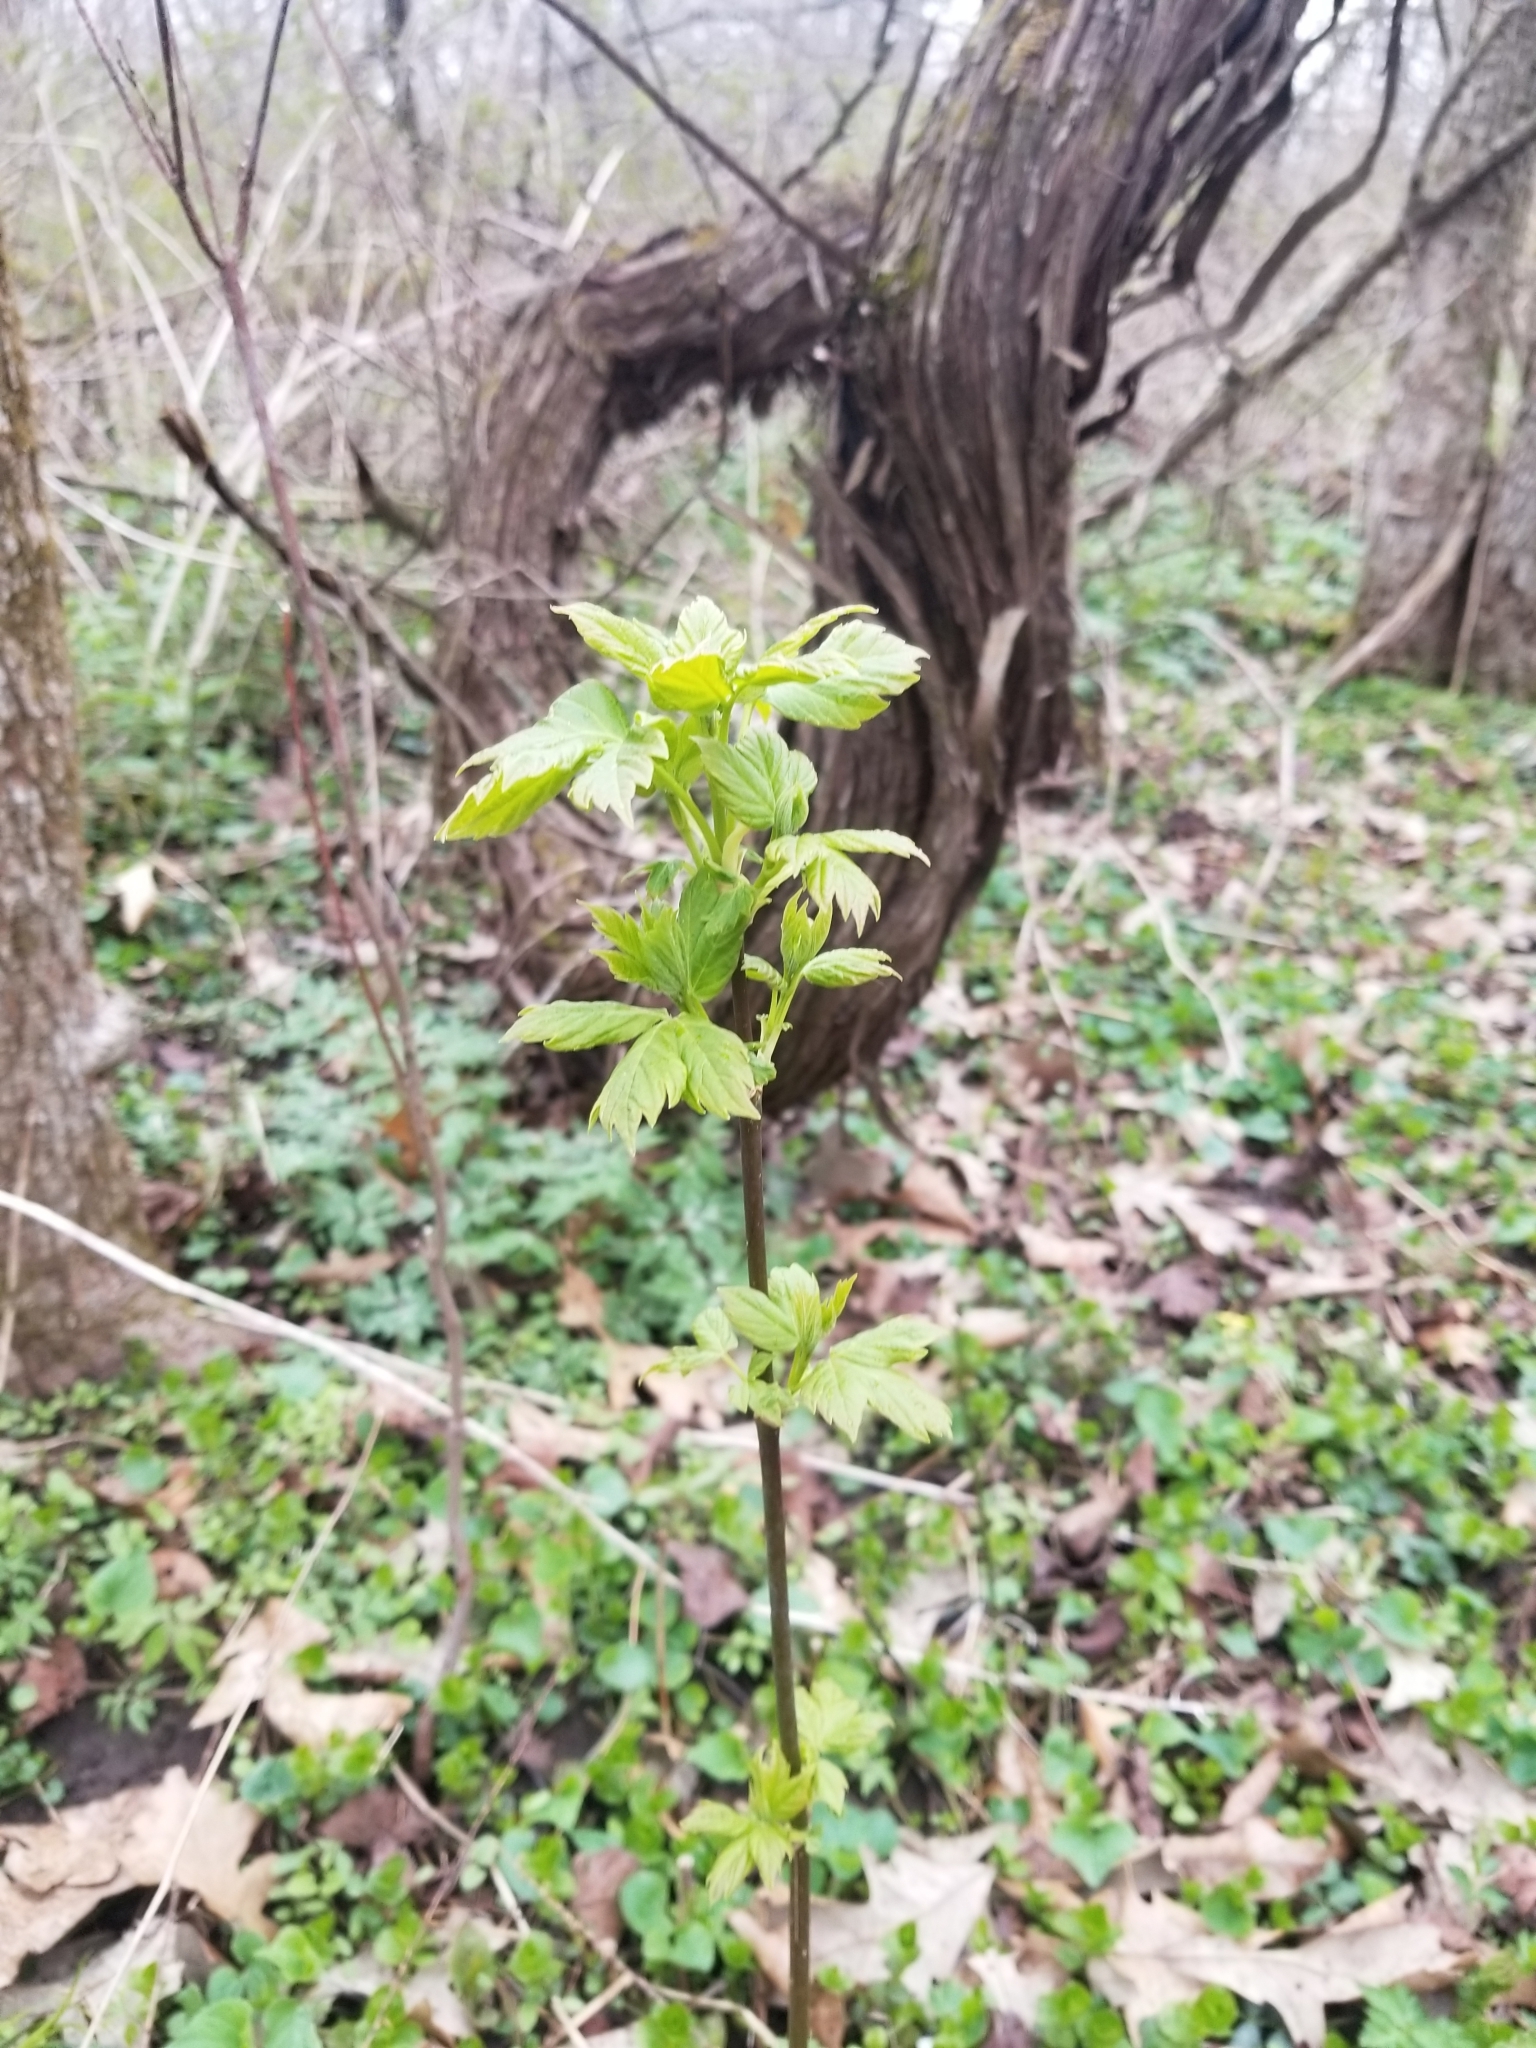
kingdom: Plantae
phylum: Tracheophyta
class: Magnoliopsida
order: Sapindales
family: Sapindaceae
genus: Acer
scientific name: Acer negundo
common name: Ashleaf maple
